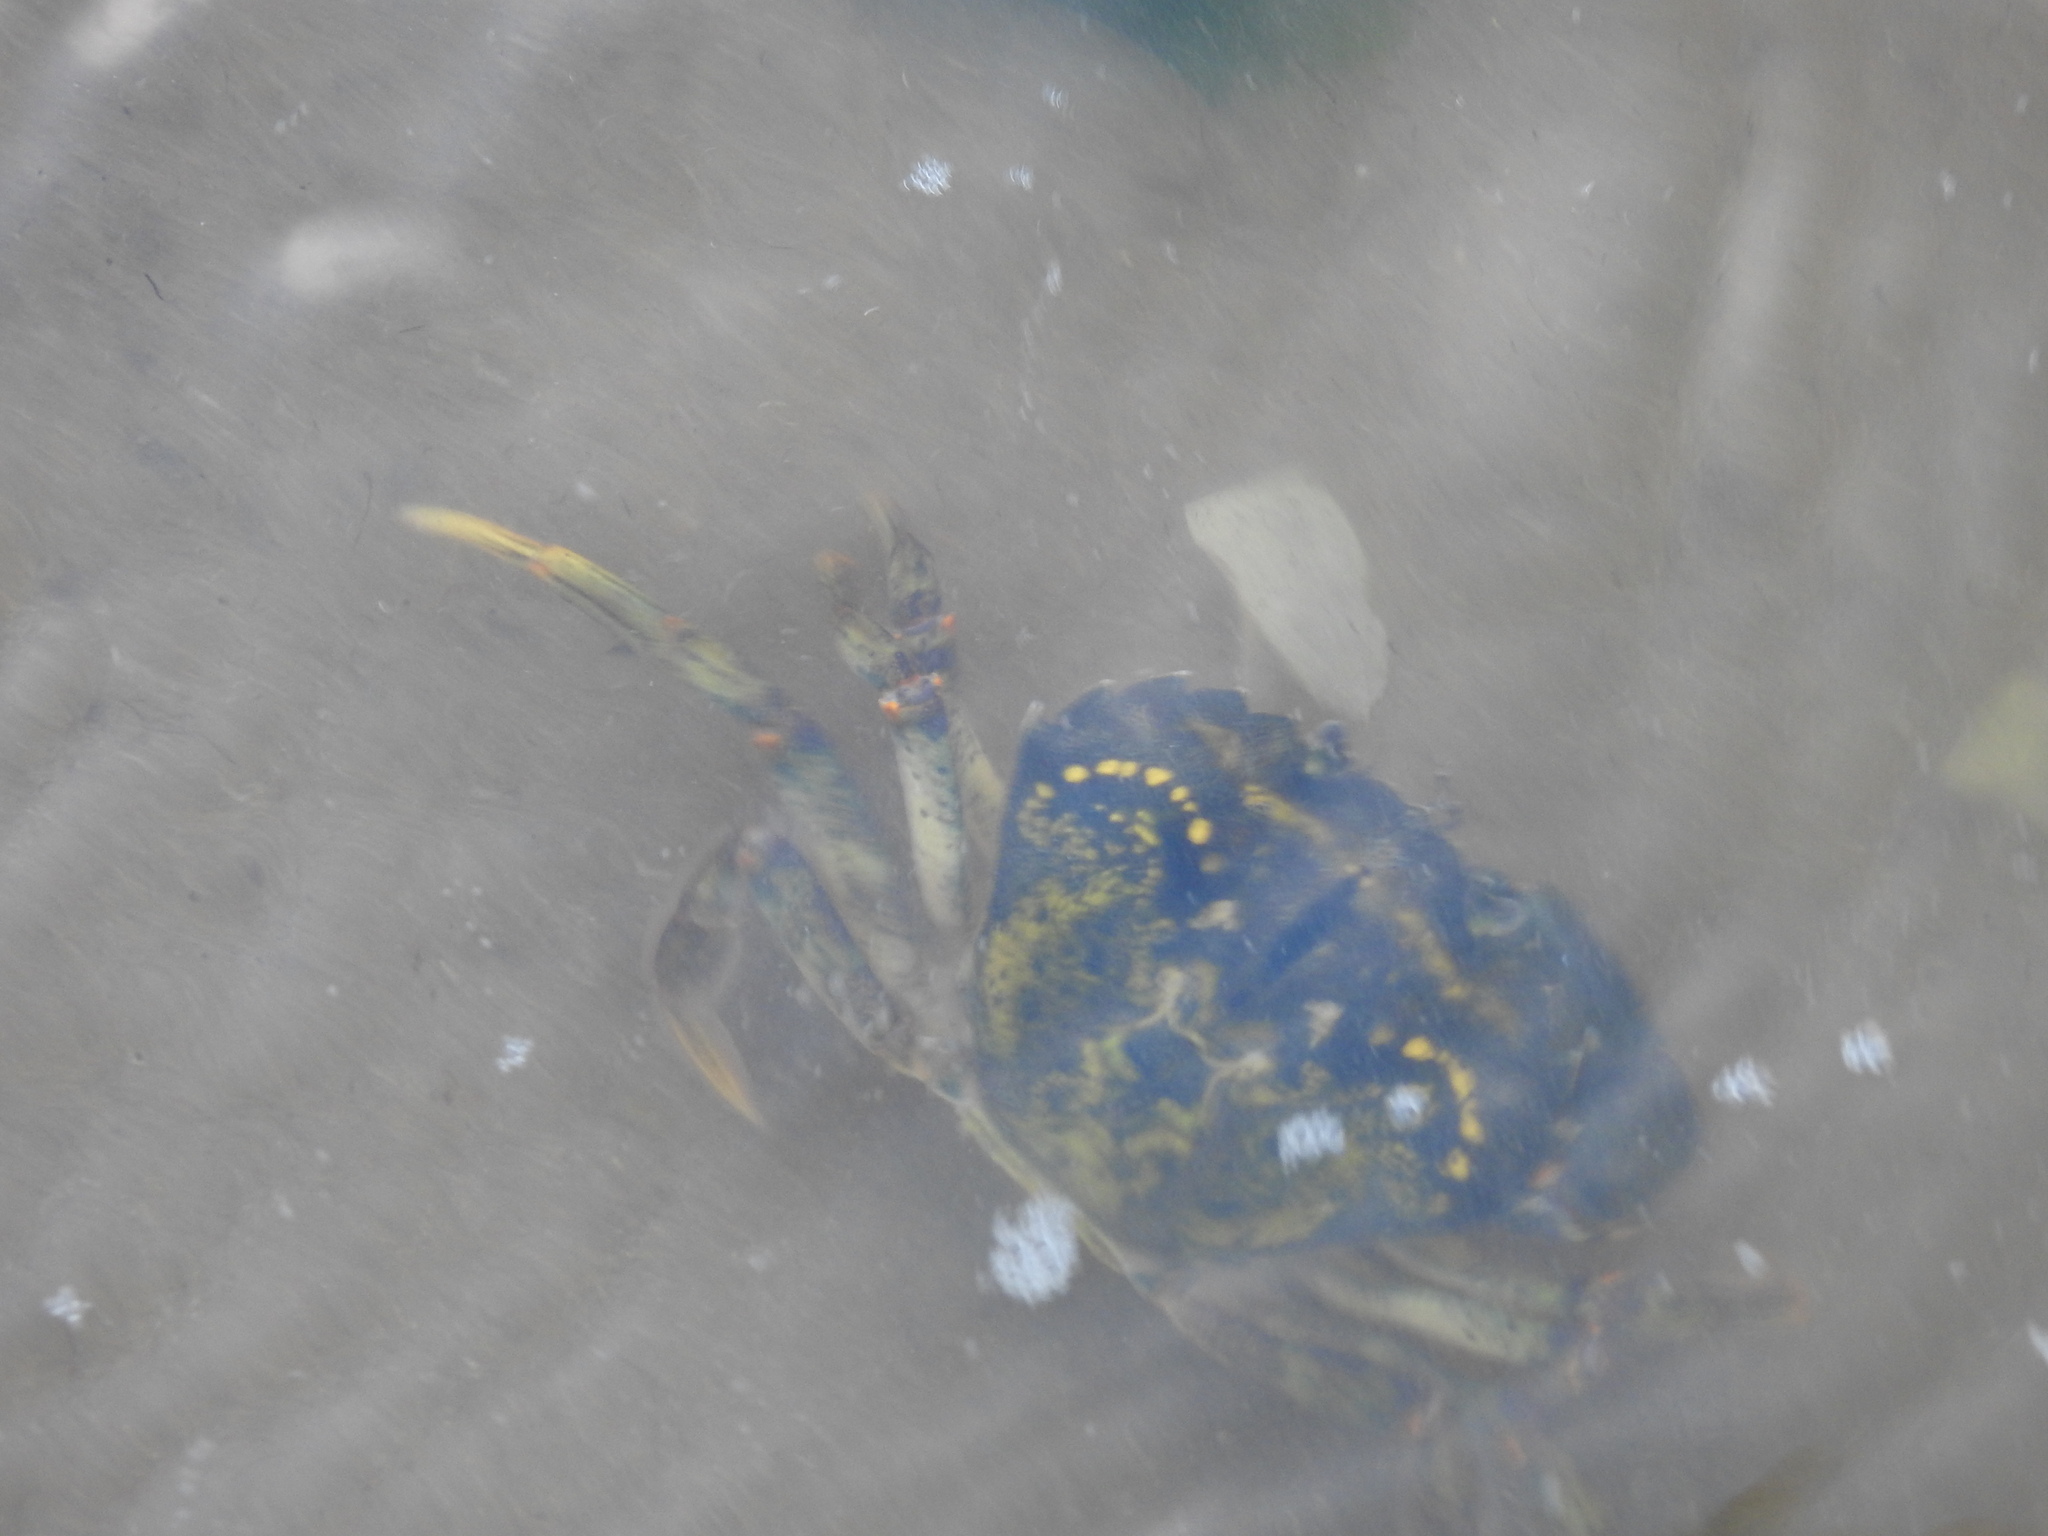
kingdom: Animalia
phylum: Arthropoda
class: Malacostraca
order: Decapoda
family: Carcinidae
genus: Carcinus
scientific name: Carcinus maenas
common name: European green crab
